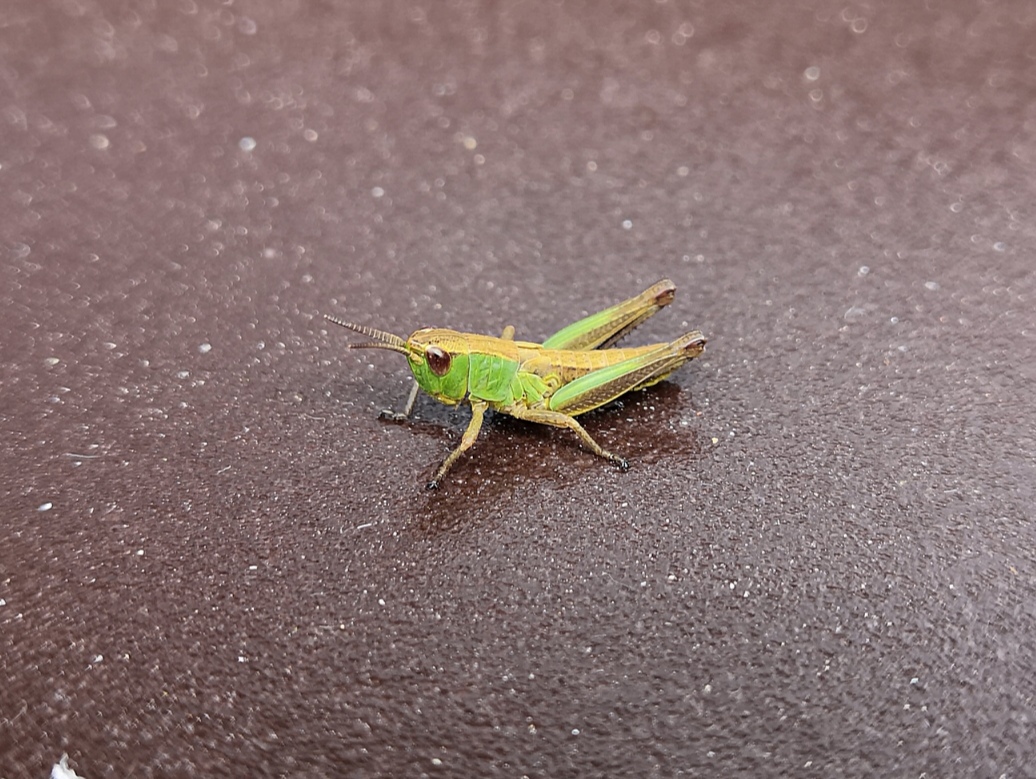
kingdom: Animalia
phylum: Arthropoda
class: Insecta
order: Orthoptera
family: Acrididae
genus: Pseudochorthippus
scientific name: Pseudochorthippus parallelus
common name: Meadow grasshopper
